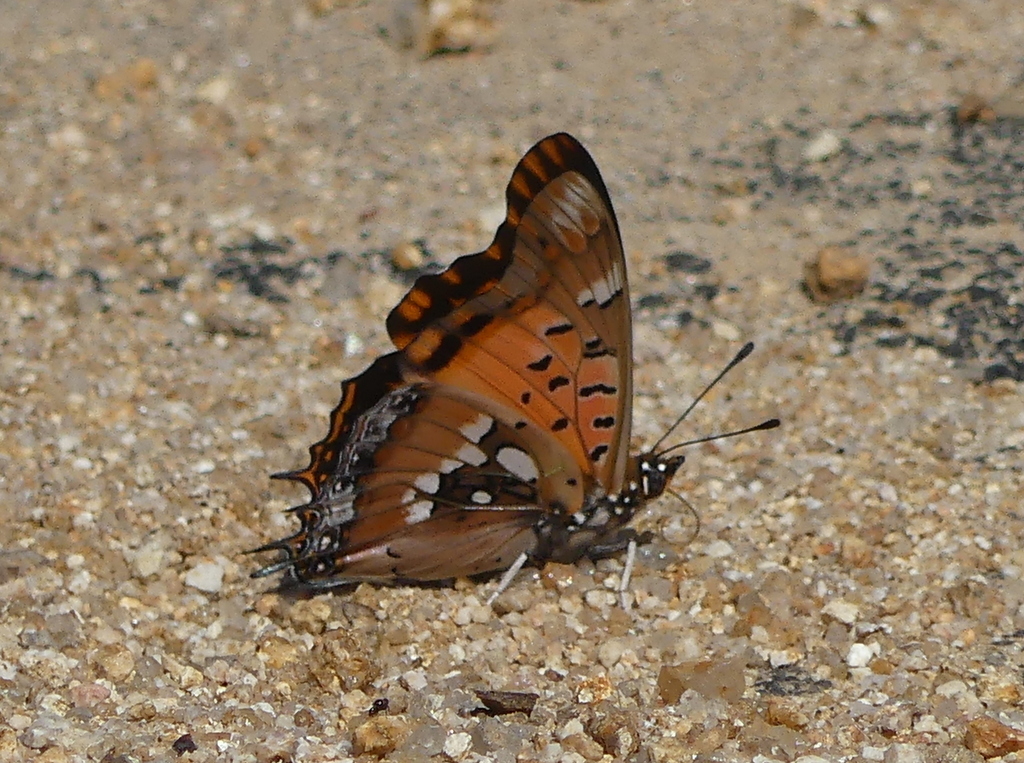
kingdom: Animalia
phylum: Arthropoda
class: Insecta
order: Lepidoptera
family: Nymphalidae
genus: Charaxes
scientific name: Charaxes jahlusa
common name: Pearl-spotted charaxes
